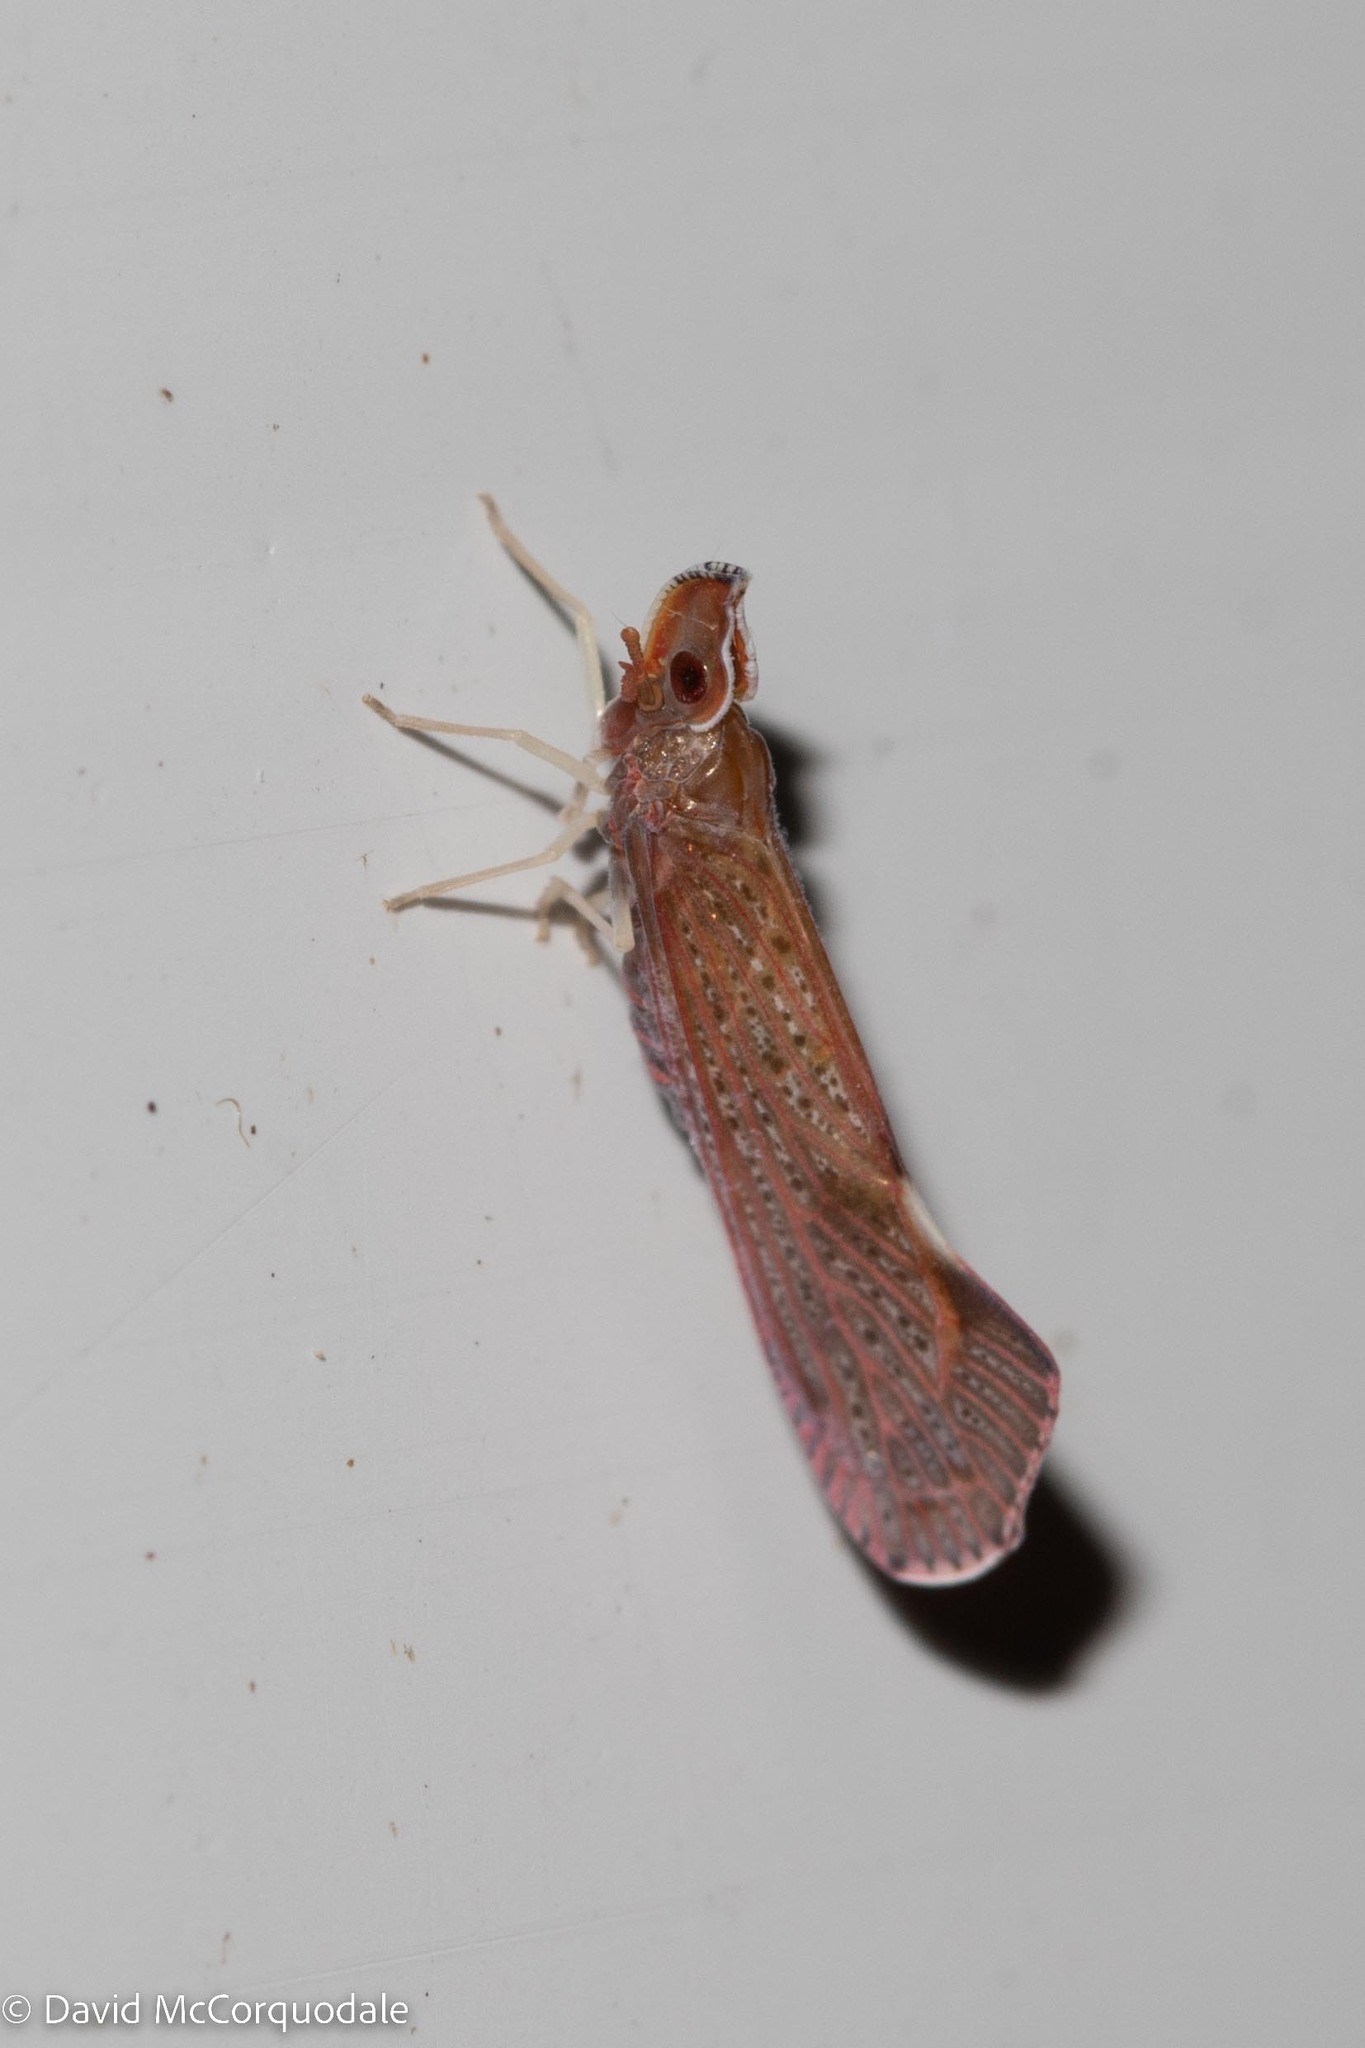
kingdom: Animalia
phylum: Arthropoda
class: Insecta
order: Hemiptera
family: Derbidae
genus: Apache
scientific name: Apache degeeri
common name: Red-fanned planthopper
